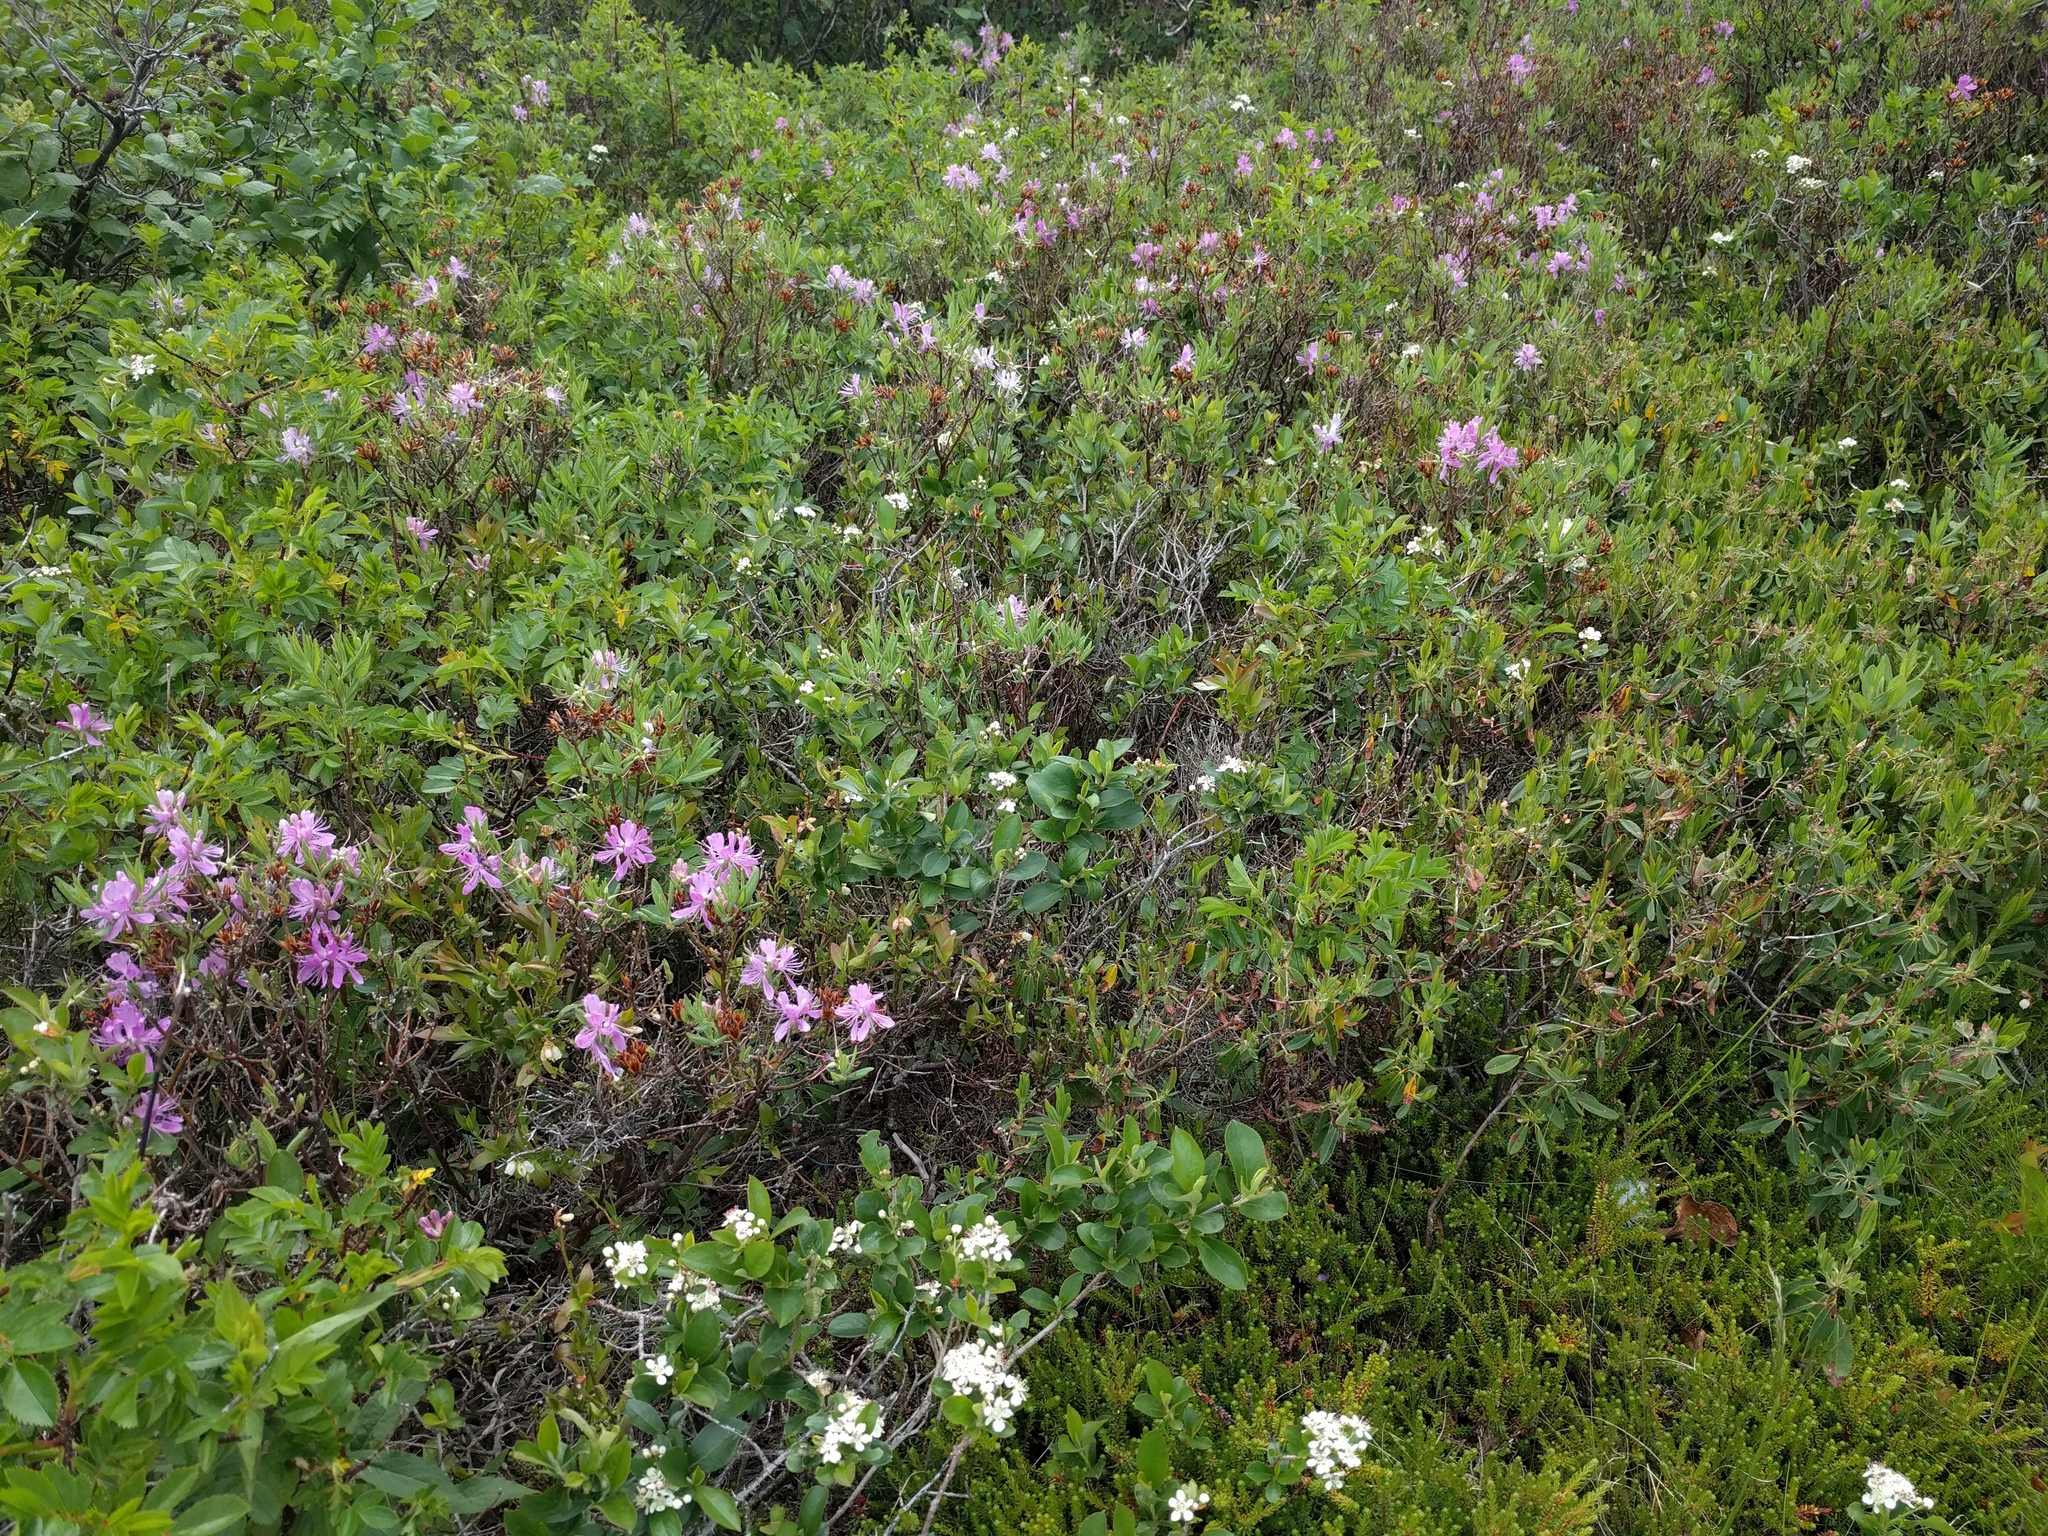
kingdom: Plantae
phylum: Tracheophyta
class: Magnoliopsida
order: Ericales
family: Ericaceae
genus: Rhododendron
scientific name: Rhododendron canadense
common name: Rhodora
